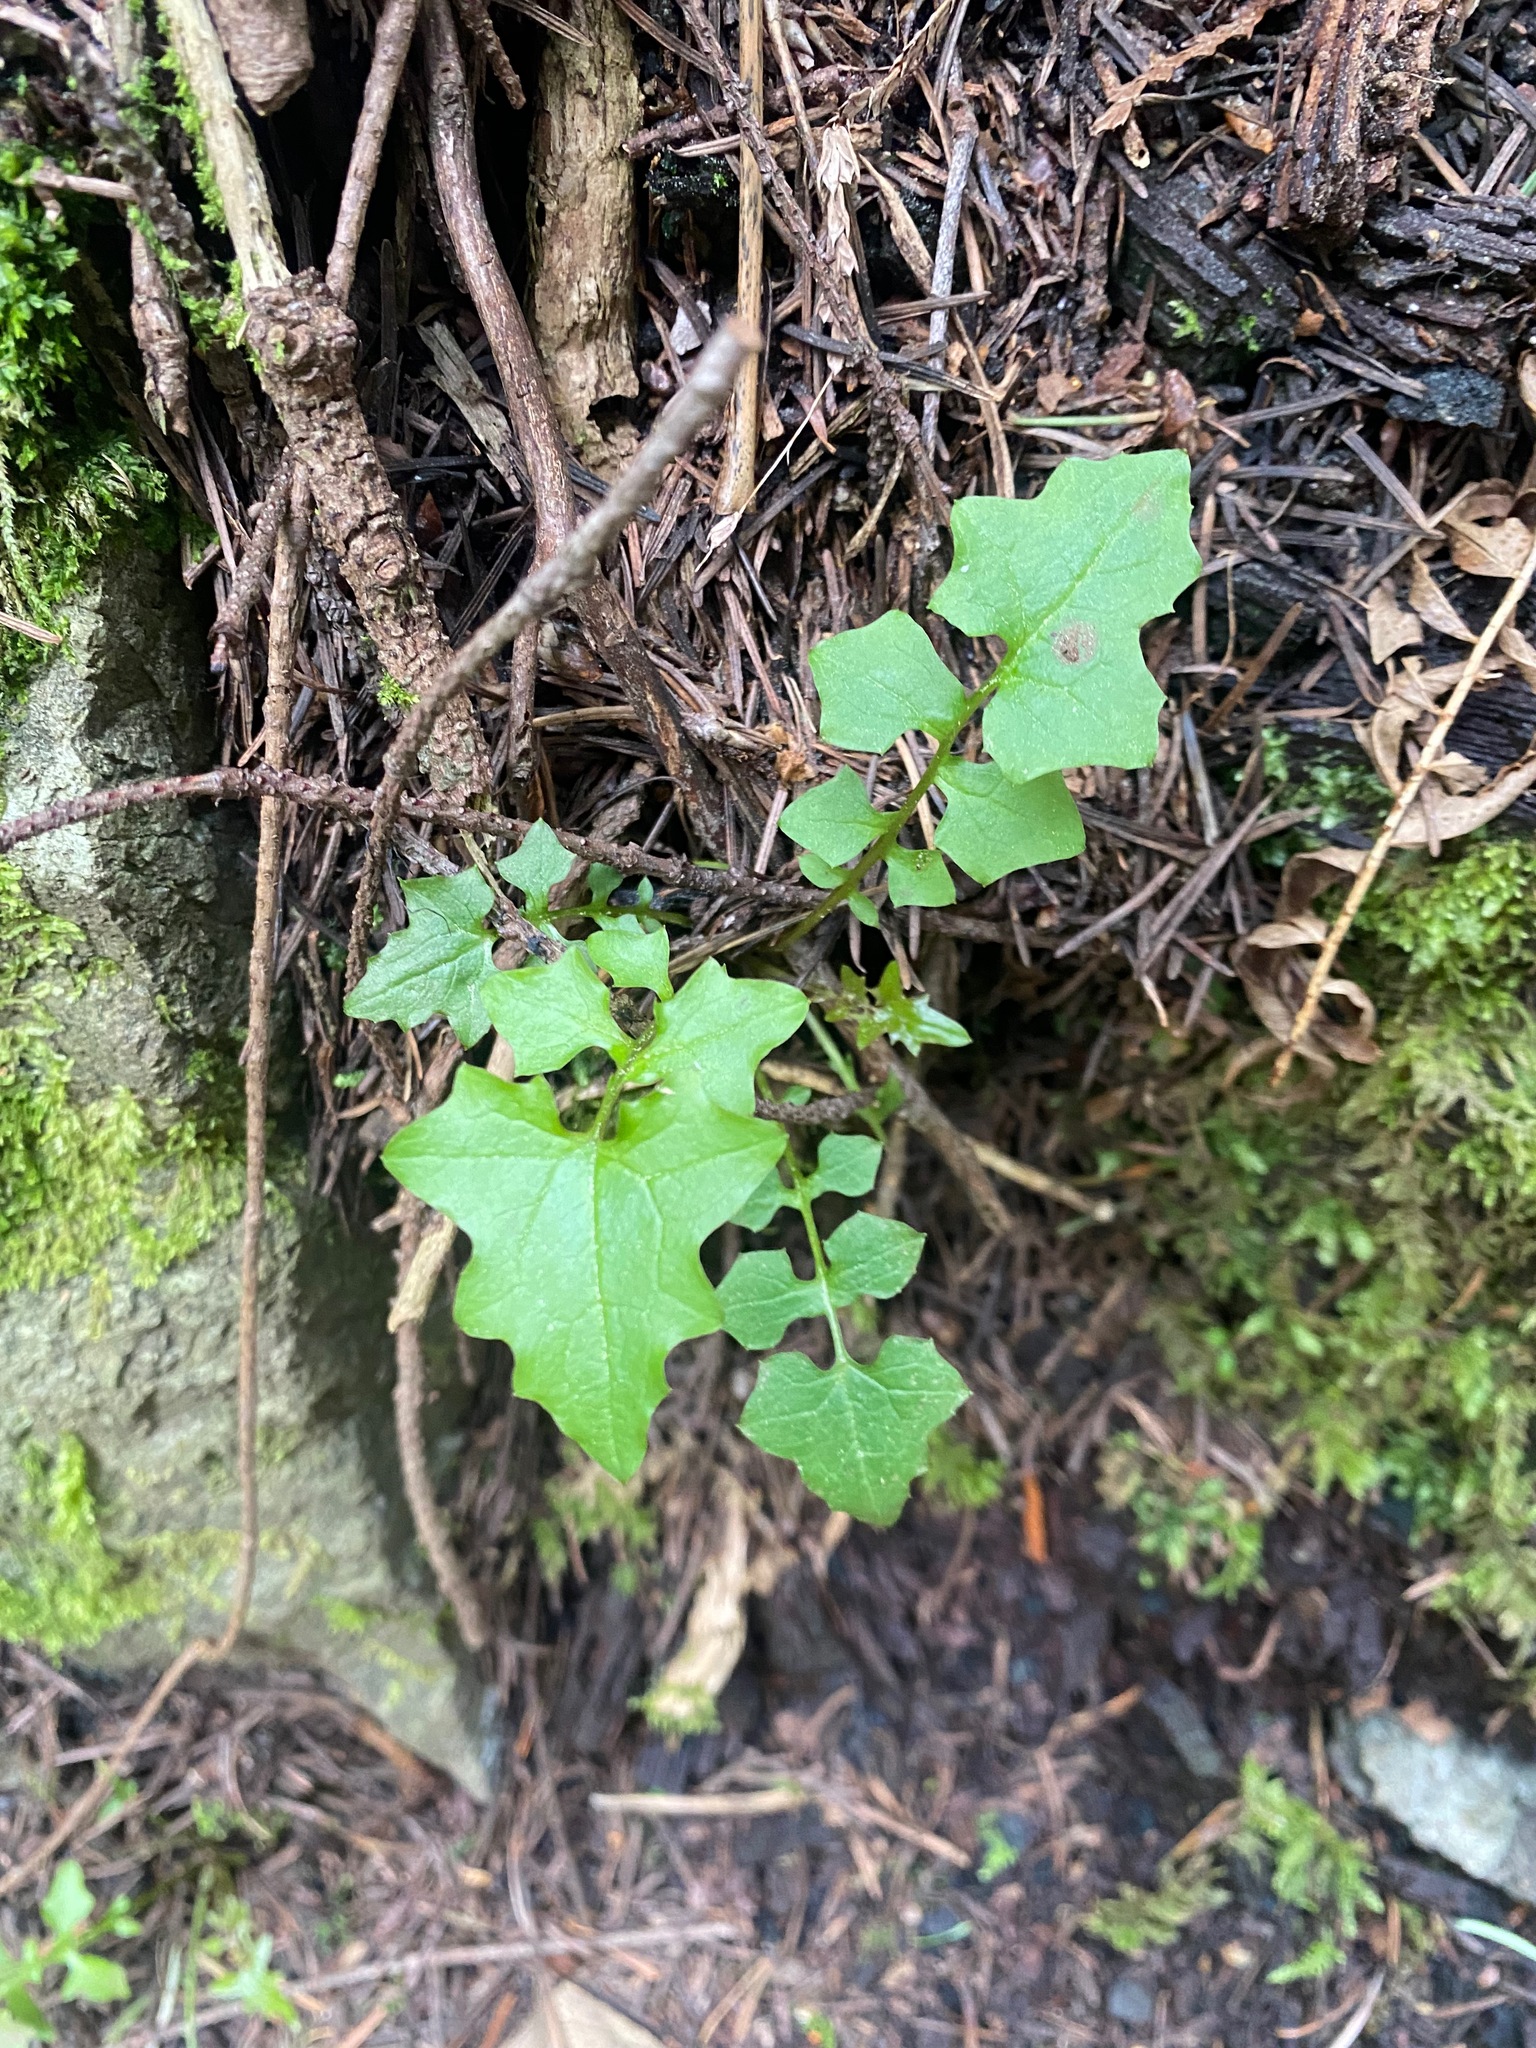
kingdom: Plantae
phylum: Tracheophyta
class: Magnoliopsida
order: Asterales
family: Asteraceae
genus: Mycelis
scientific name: Mycelis muralis
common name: Wall lettuce
